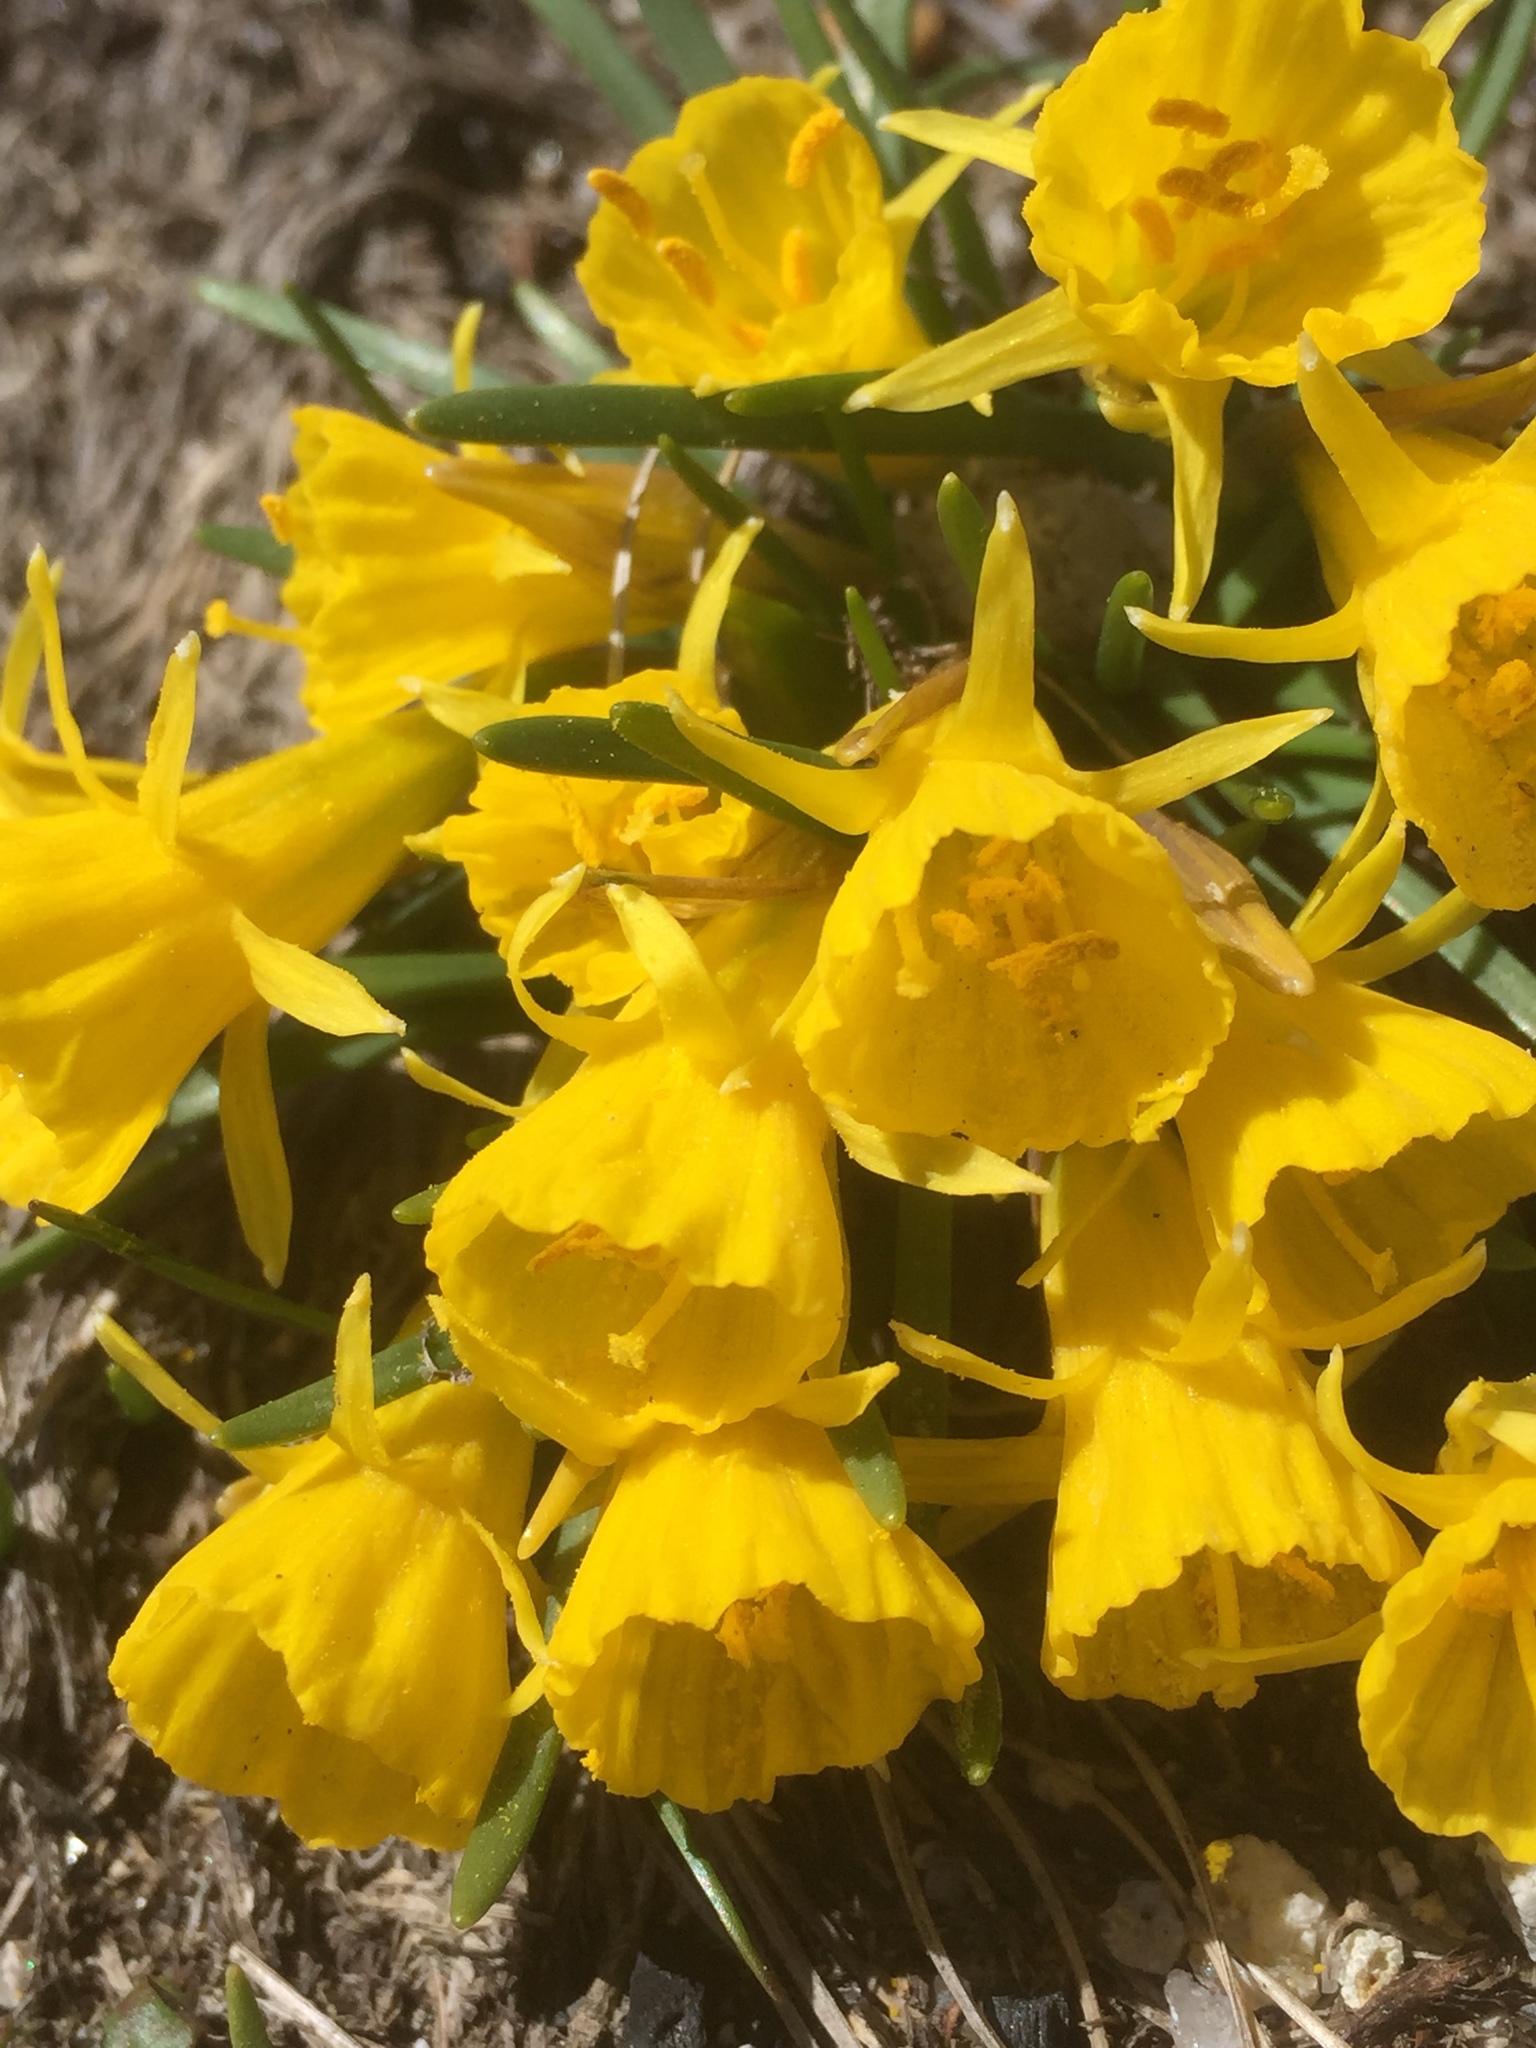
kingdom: Plantae
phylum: Tracheophyta
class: Liliopsida
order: Asparagales
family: Amaryllidaceae
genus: Narcissus
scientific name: Narcissus bulbocodium
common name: Hoop-petticoat daffodil
